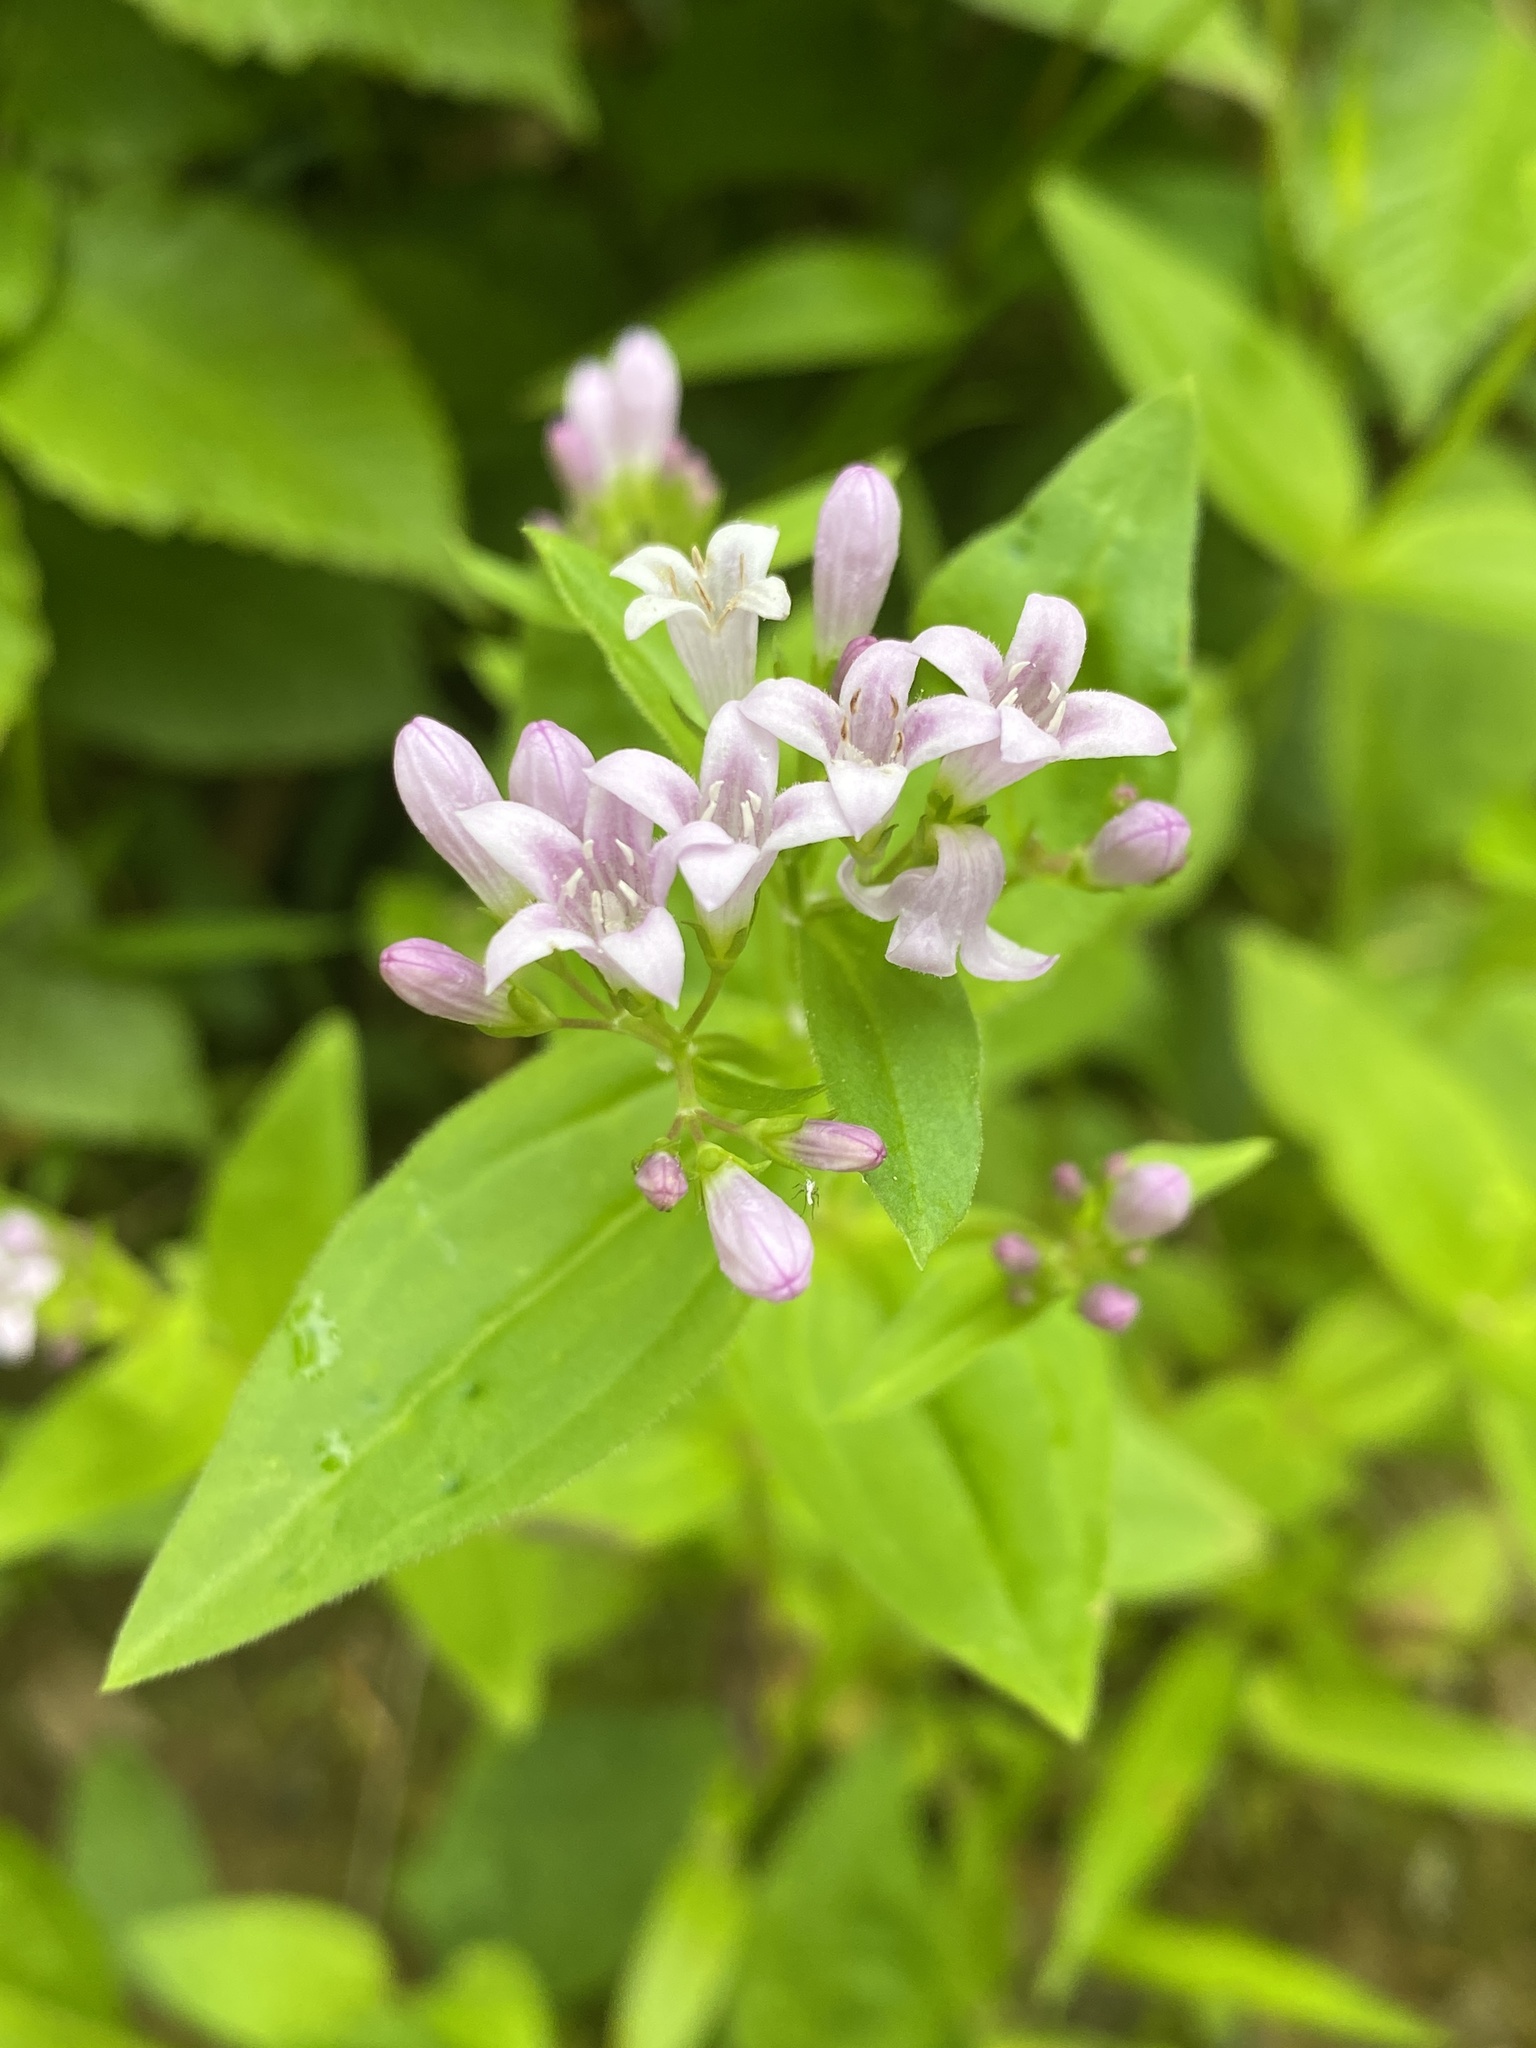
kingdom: Plantae
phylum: Tracheophyta
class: Magnoliopsida
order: Gentianales
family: Rubiaceae
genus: Houstonia
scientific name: Houstonia purpurea
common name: Summer bluet
